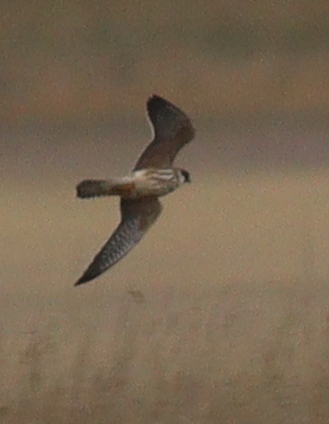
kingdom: Animalia
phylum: Chordata
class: Aves
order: Falconiformes
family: Falconidae
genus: Falco
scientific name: Falco vespertinus
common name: Red-footed falcon
